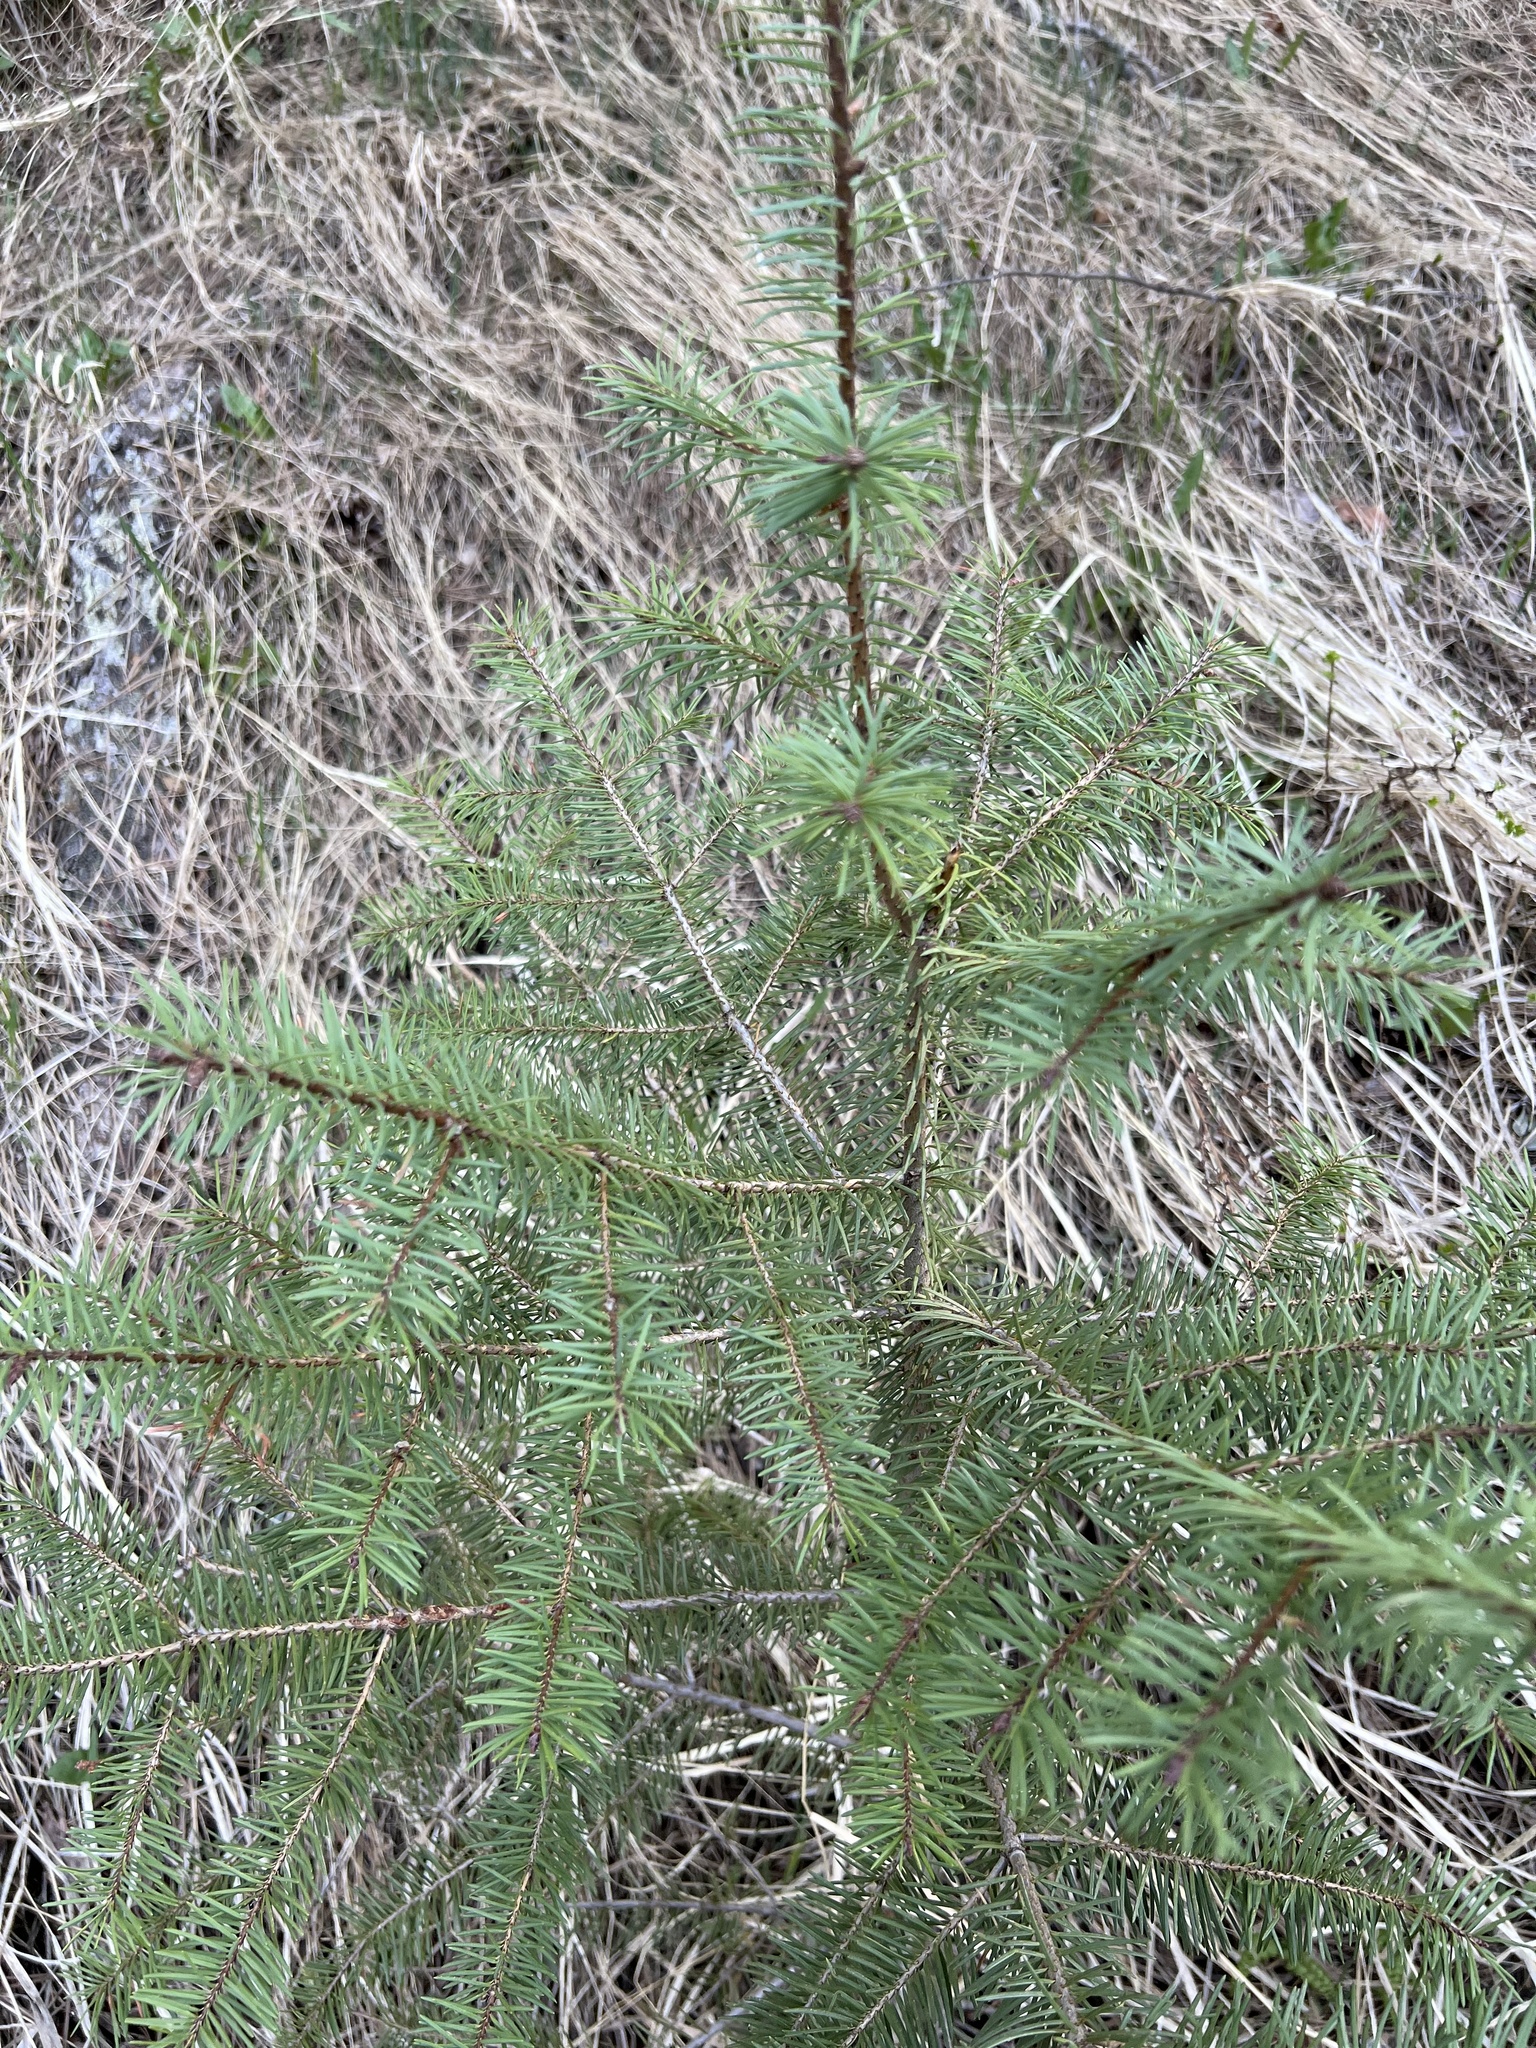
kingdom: Plantae
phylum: Tracheophyta
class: Pinopsida
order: Pinales
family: Pinaceae
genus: Pseudotsuga
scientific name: Pseudotsuga menziesii
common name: Douglas fir
